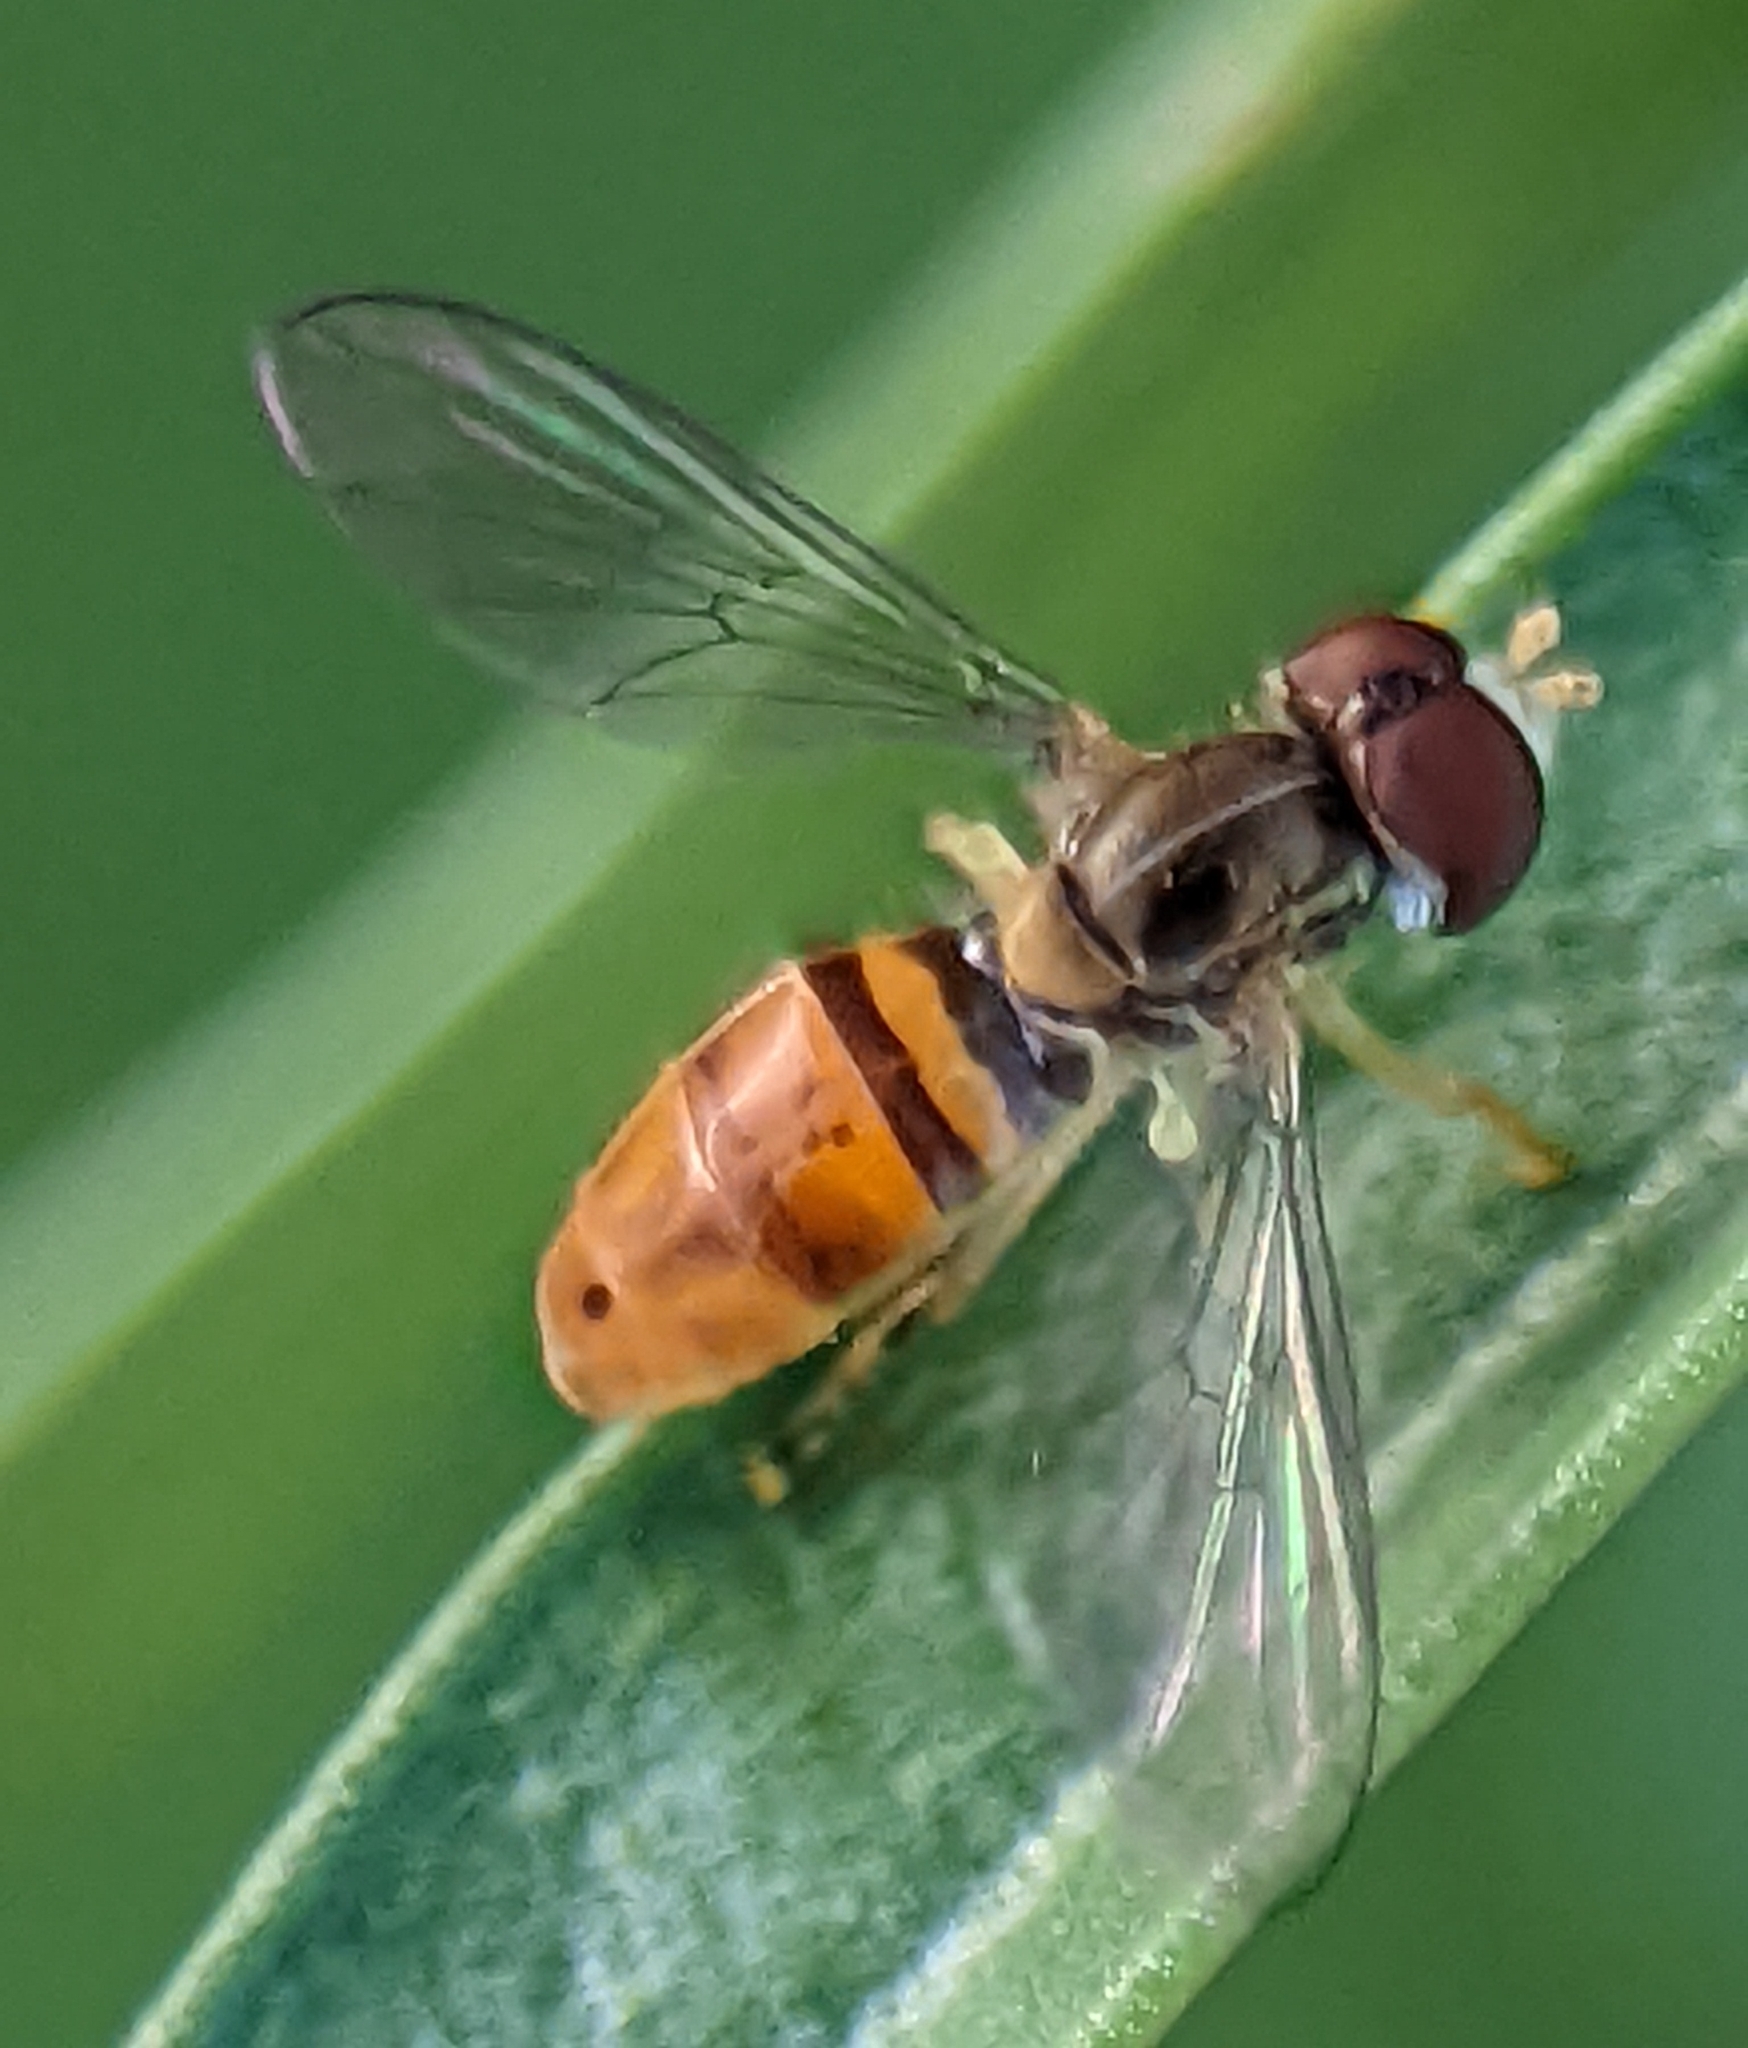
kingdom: Animalia
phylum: Arthropoda
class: Insecta
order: Diptera
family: Syrphidae
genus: Toxomerus
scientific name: Toxomerus marginatus
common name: Syrphid fly
